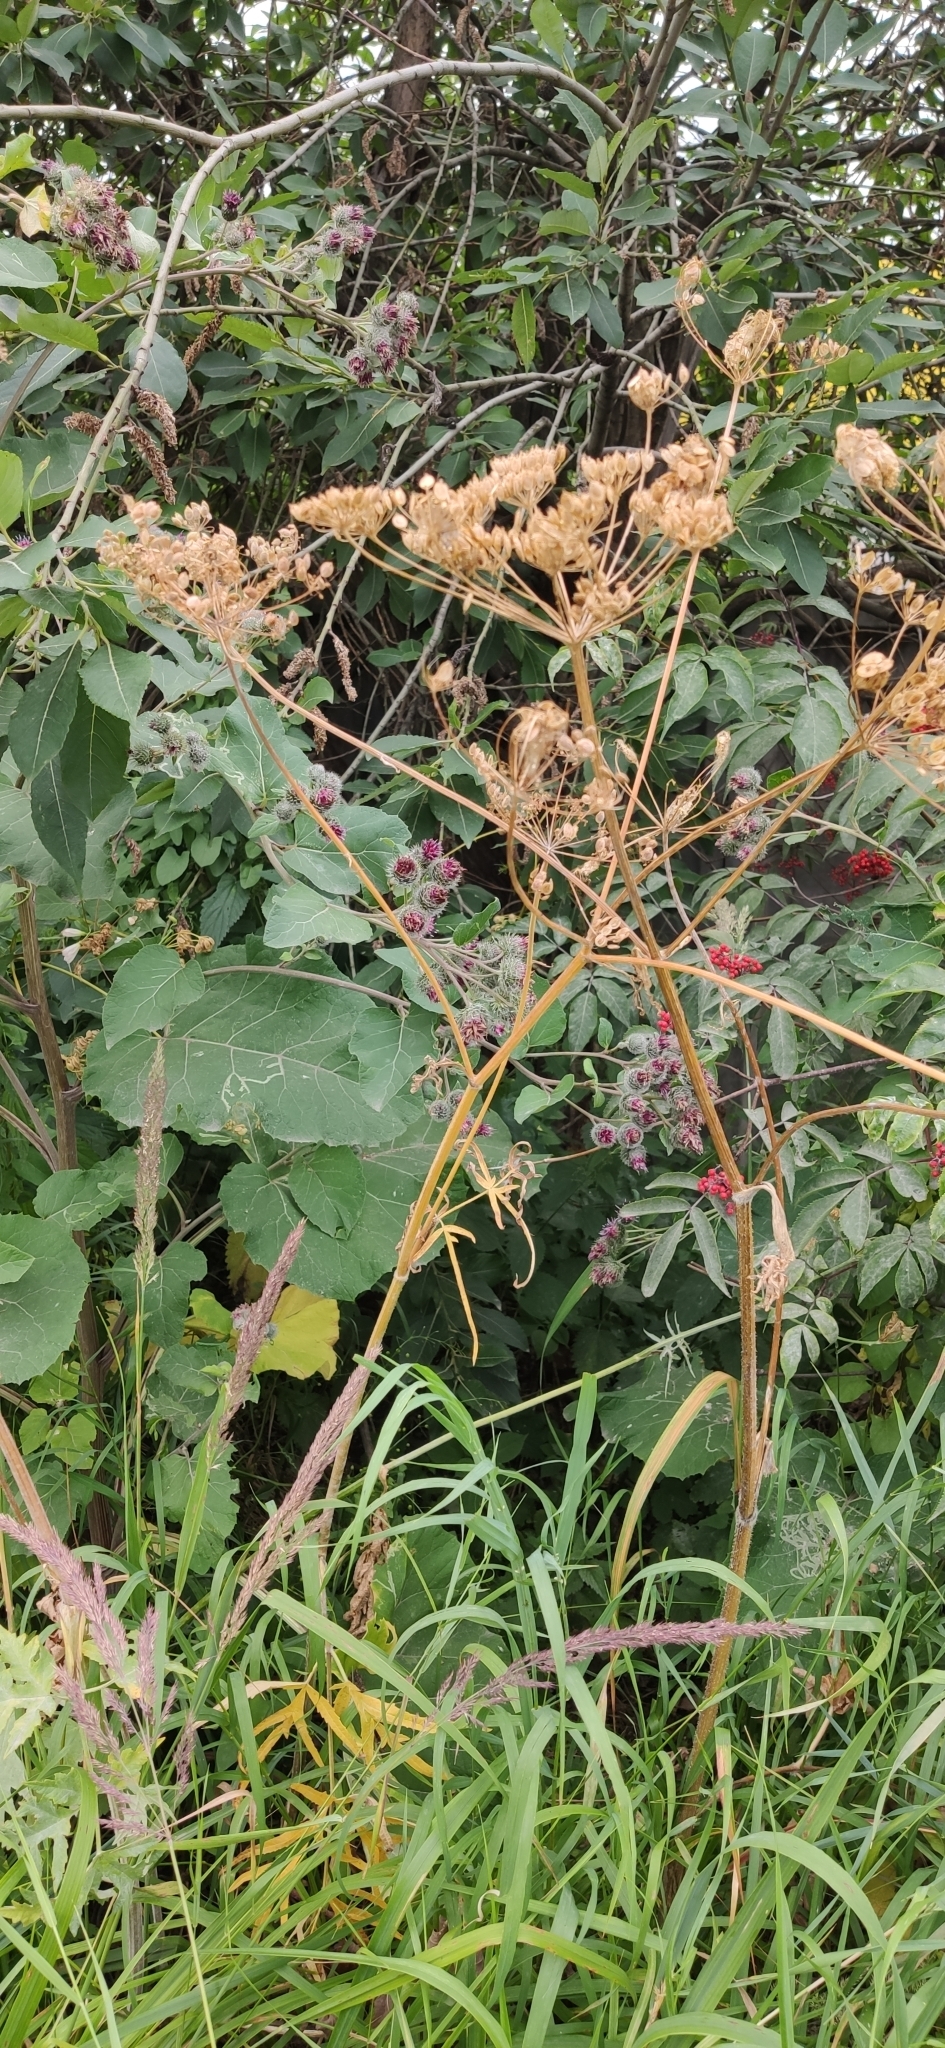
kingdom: Plantae
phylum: Tracheophyta
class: Magnoliopsida
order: Apiales
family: Apiaceae
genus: Heracleum
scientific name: Heracleum sphondylium
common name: Hogweed
